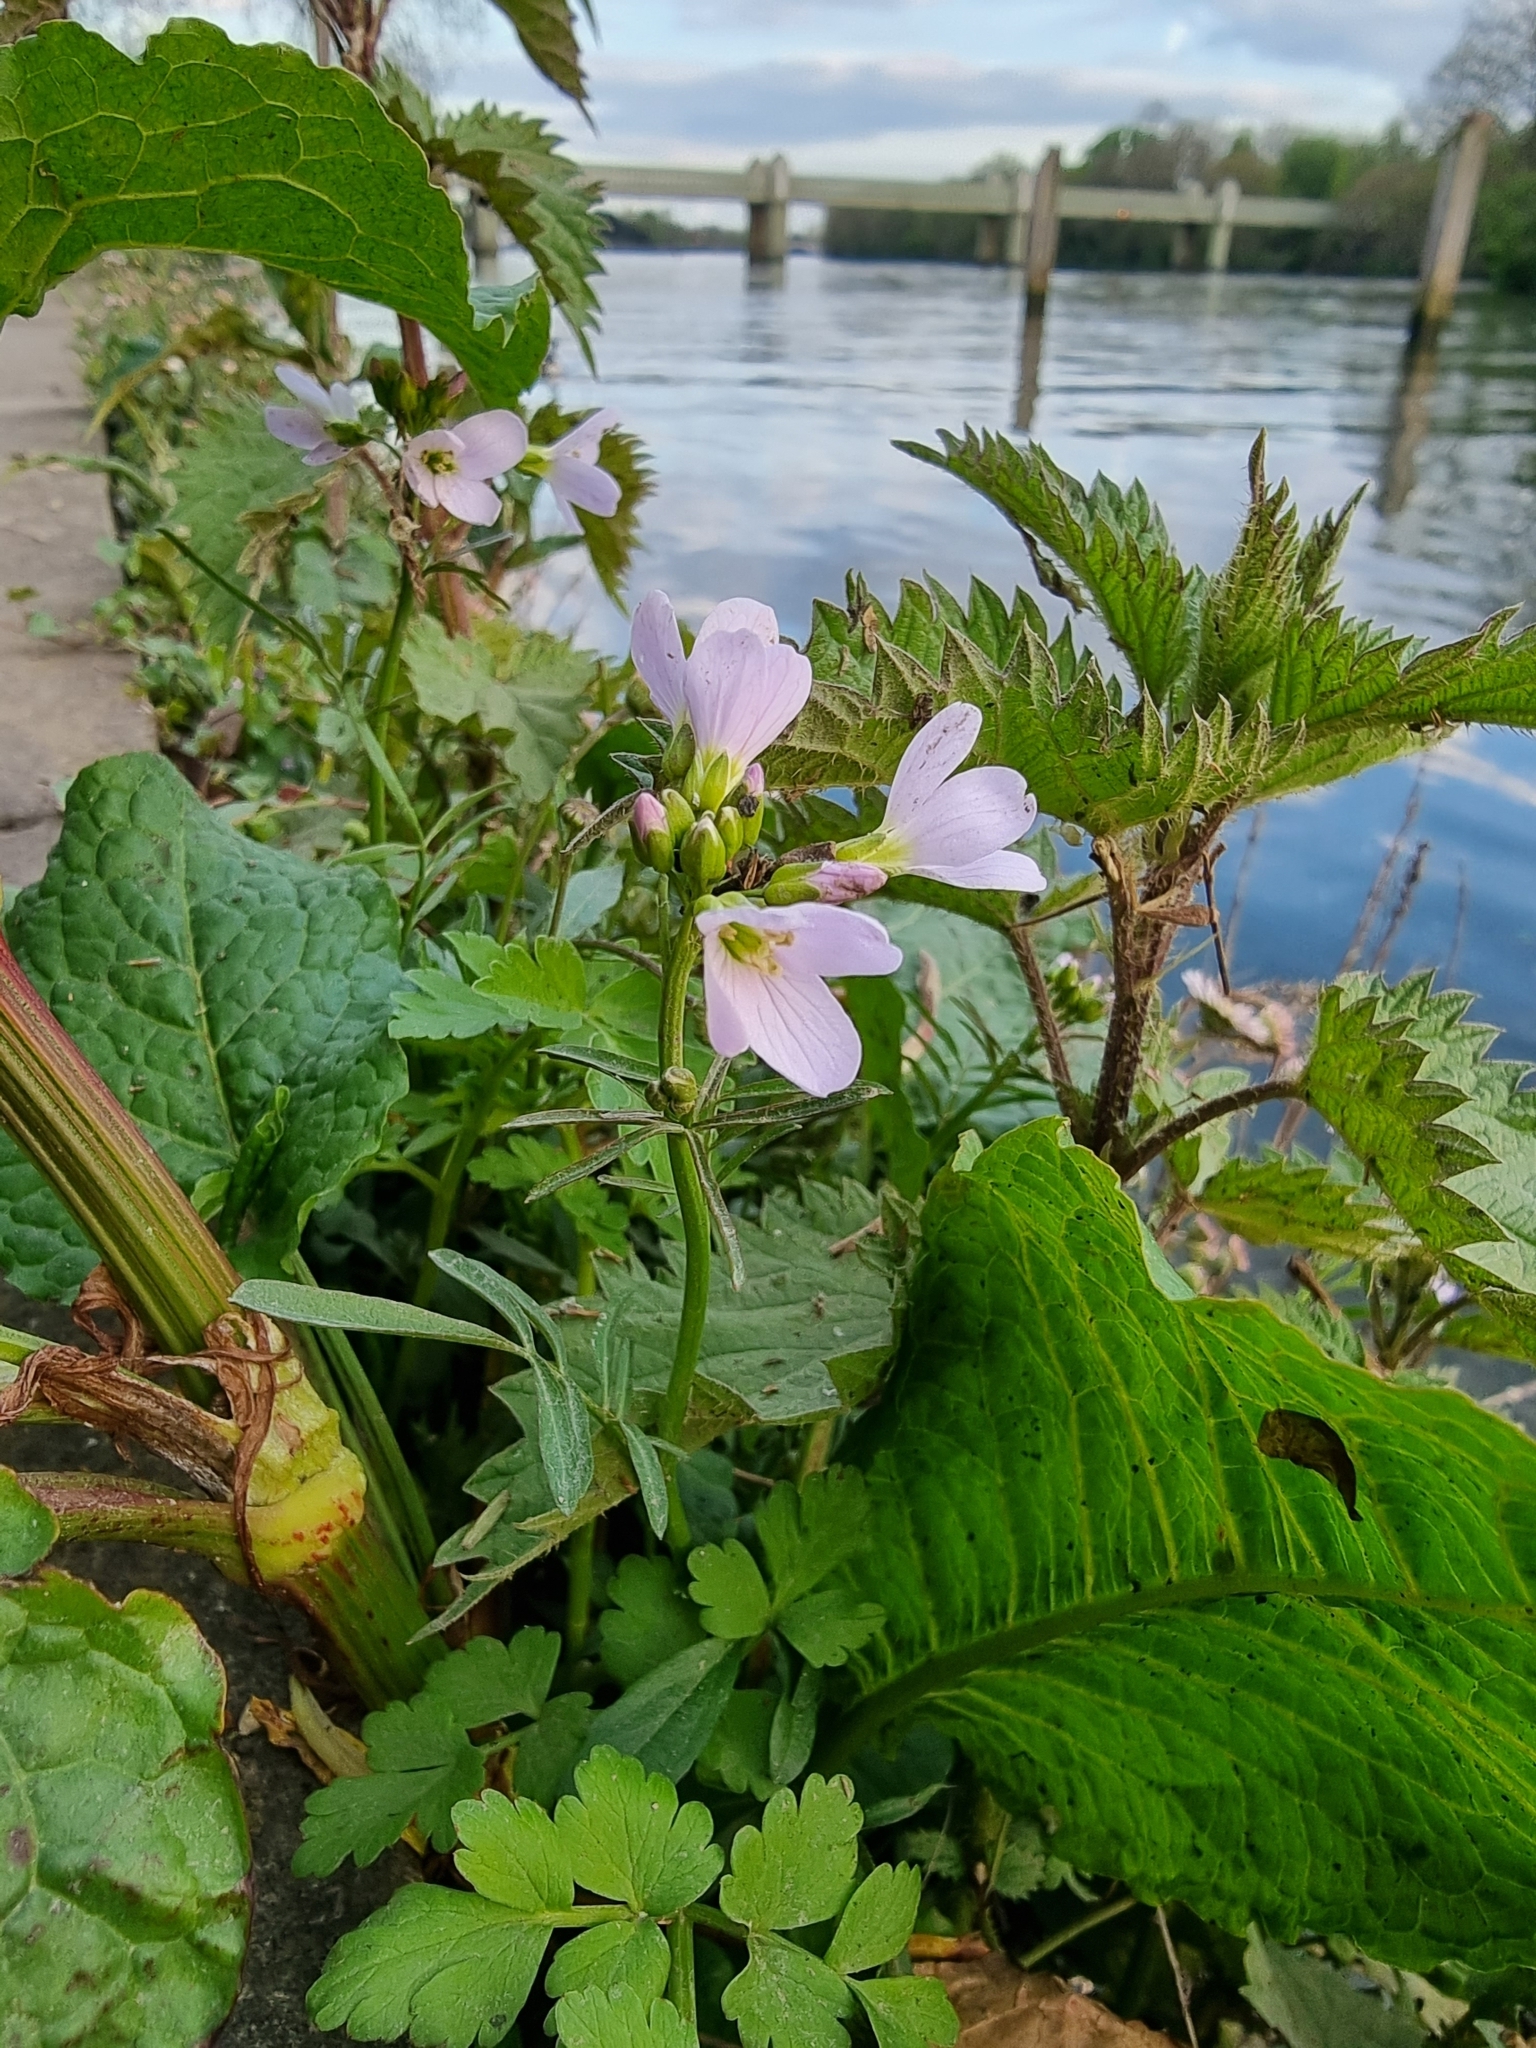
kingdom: Plantae
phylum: Tracheophyta
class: Magnoliopsida
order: Brassicales
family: Brassicaceae
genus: Cardamine
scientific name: Cardamine pratensis
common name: Cuckoo flower
